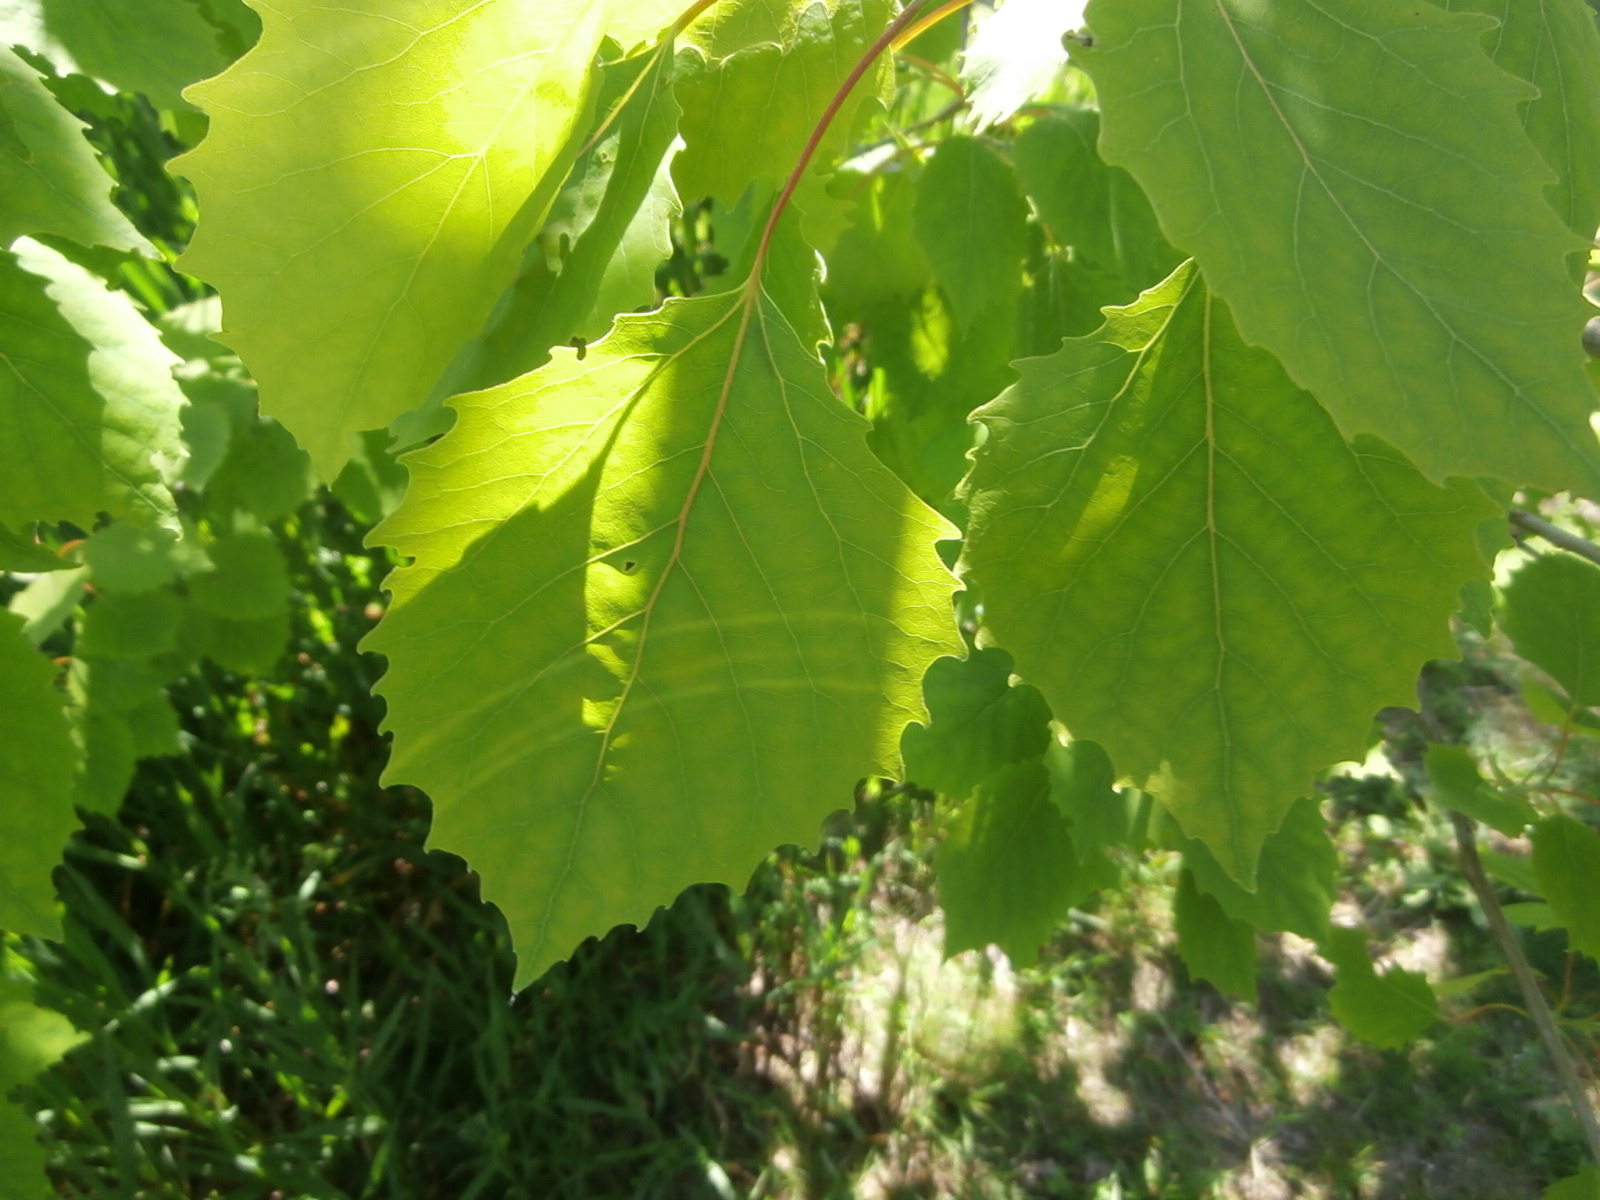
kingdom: Plantae
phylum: Tracheophyta
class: Magnoliopsida
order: Malpighiales
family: Salicaceae
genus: Populus
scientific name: Populus grandidentata
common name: Bigtooth aspen
